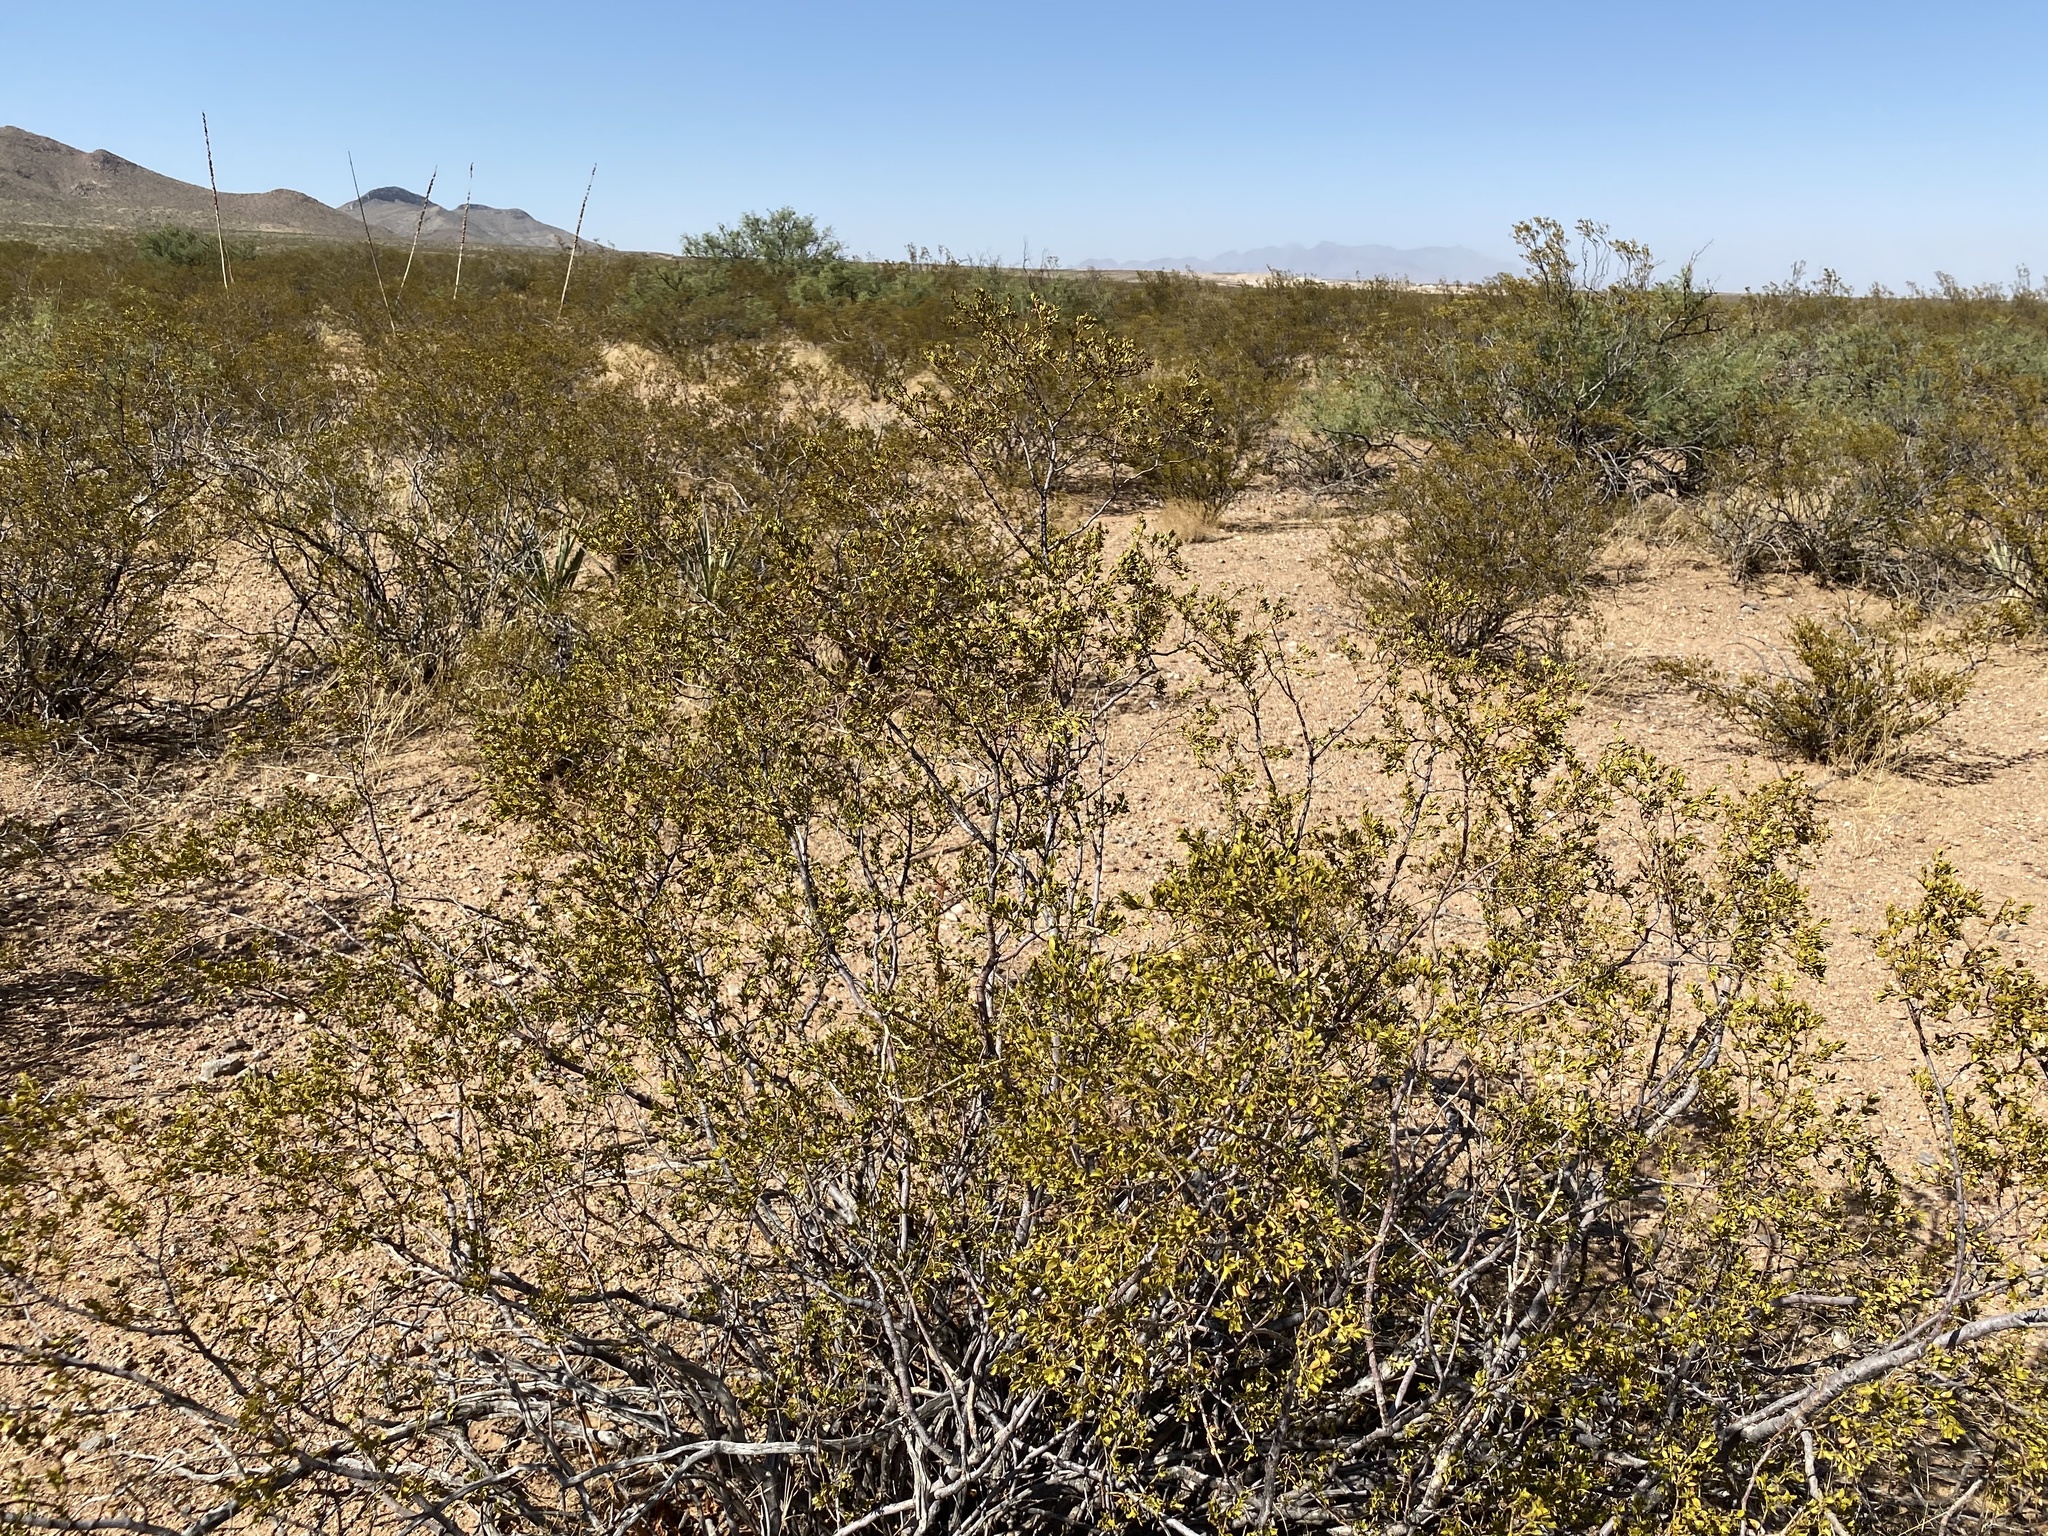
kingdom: Plantae
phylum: Tracheophyta
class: Magnoliopsida
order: Zygophyllales
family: Zygophyllaceae
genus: Larrea
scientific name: Larrea tridentata
